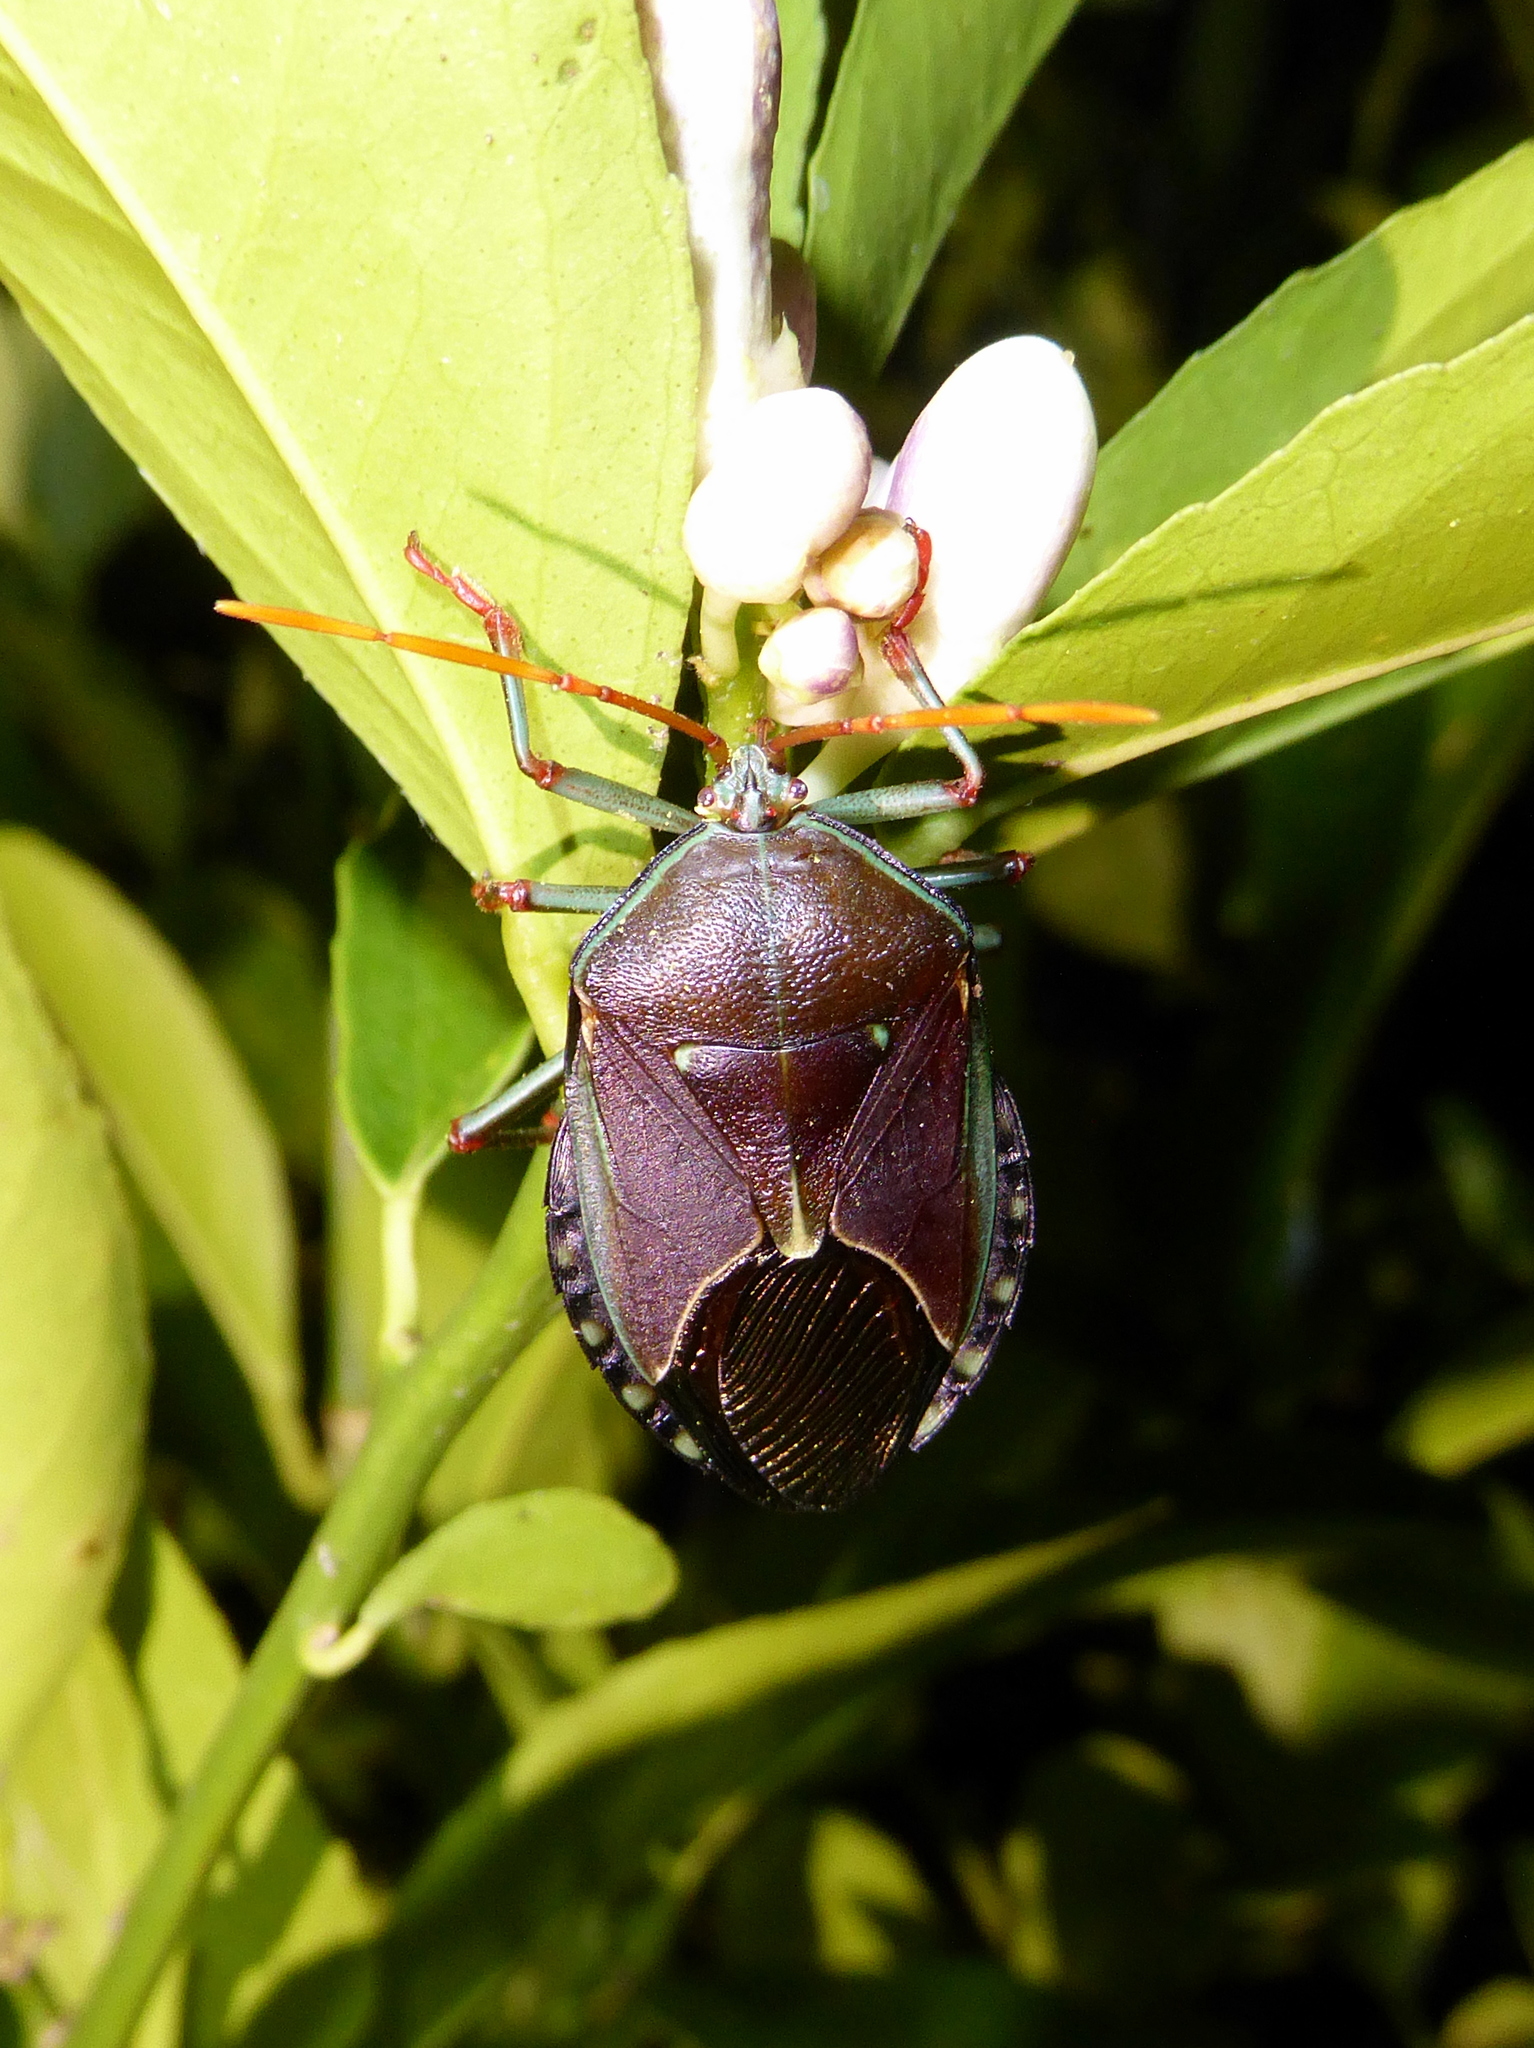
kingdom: Animalia
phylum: Arthropoda
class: Insecta
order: Hemiptera
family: Tessaratomidae
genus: Musgraveia
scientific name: Musgraveia sulciventris
